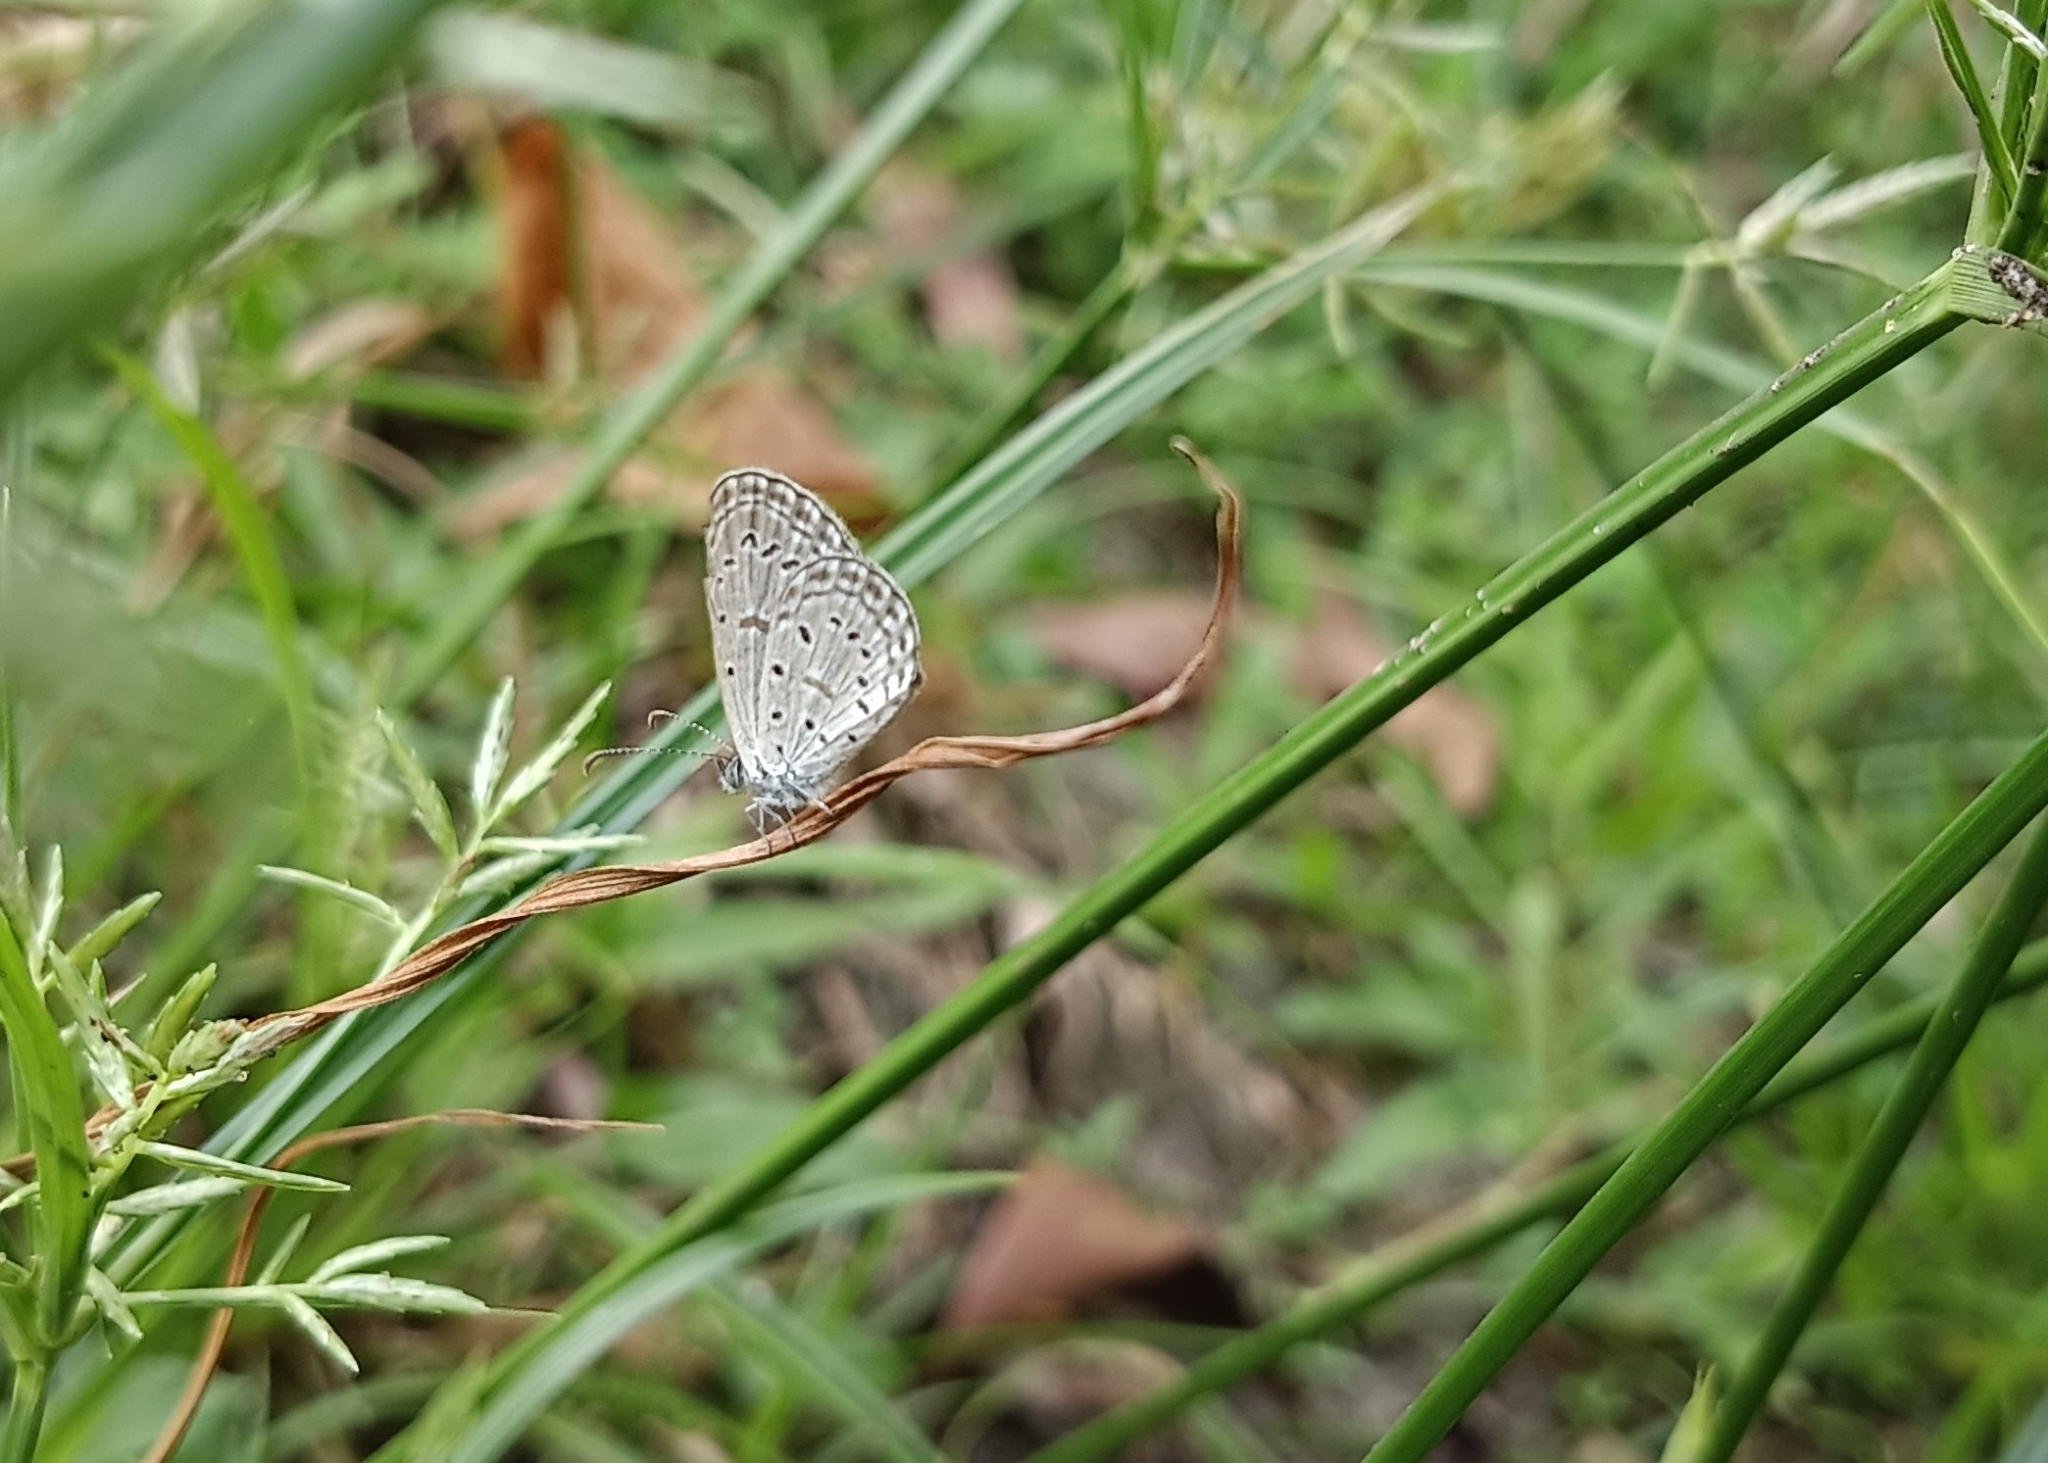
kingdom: Animalia
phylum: Arthropoda
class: Insecta
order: Lepidoptera
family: Lycaenidae
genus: Zizula
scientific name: Zizula hylax
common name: Gaika blue
